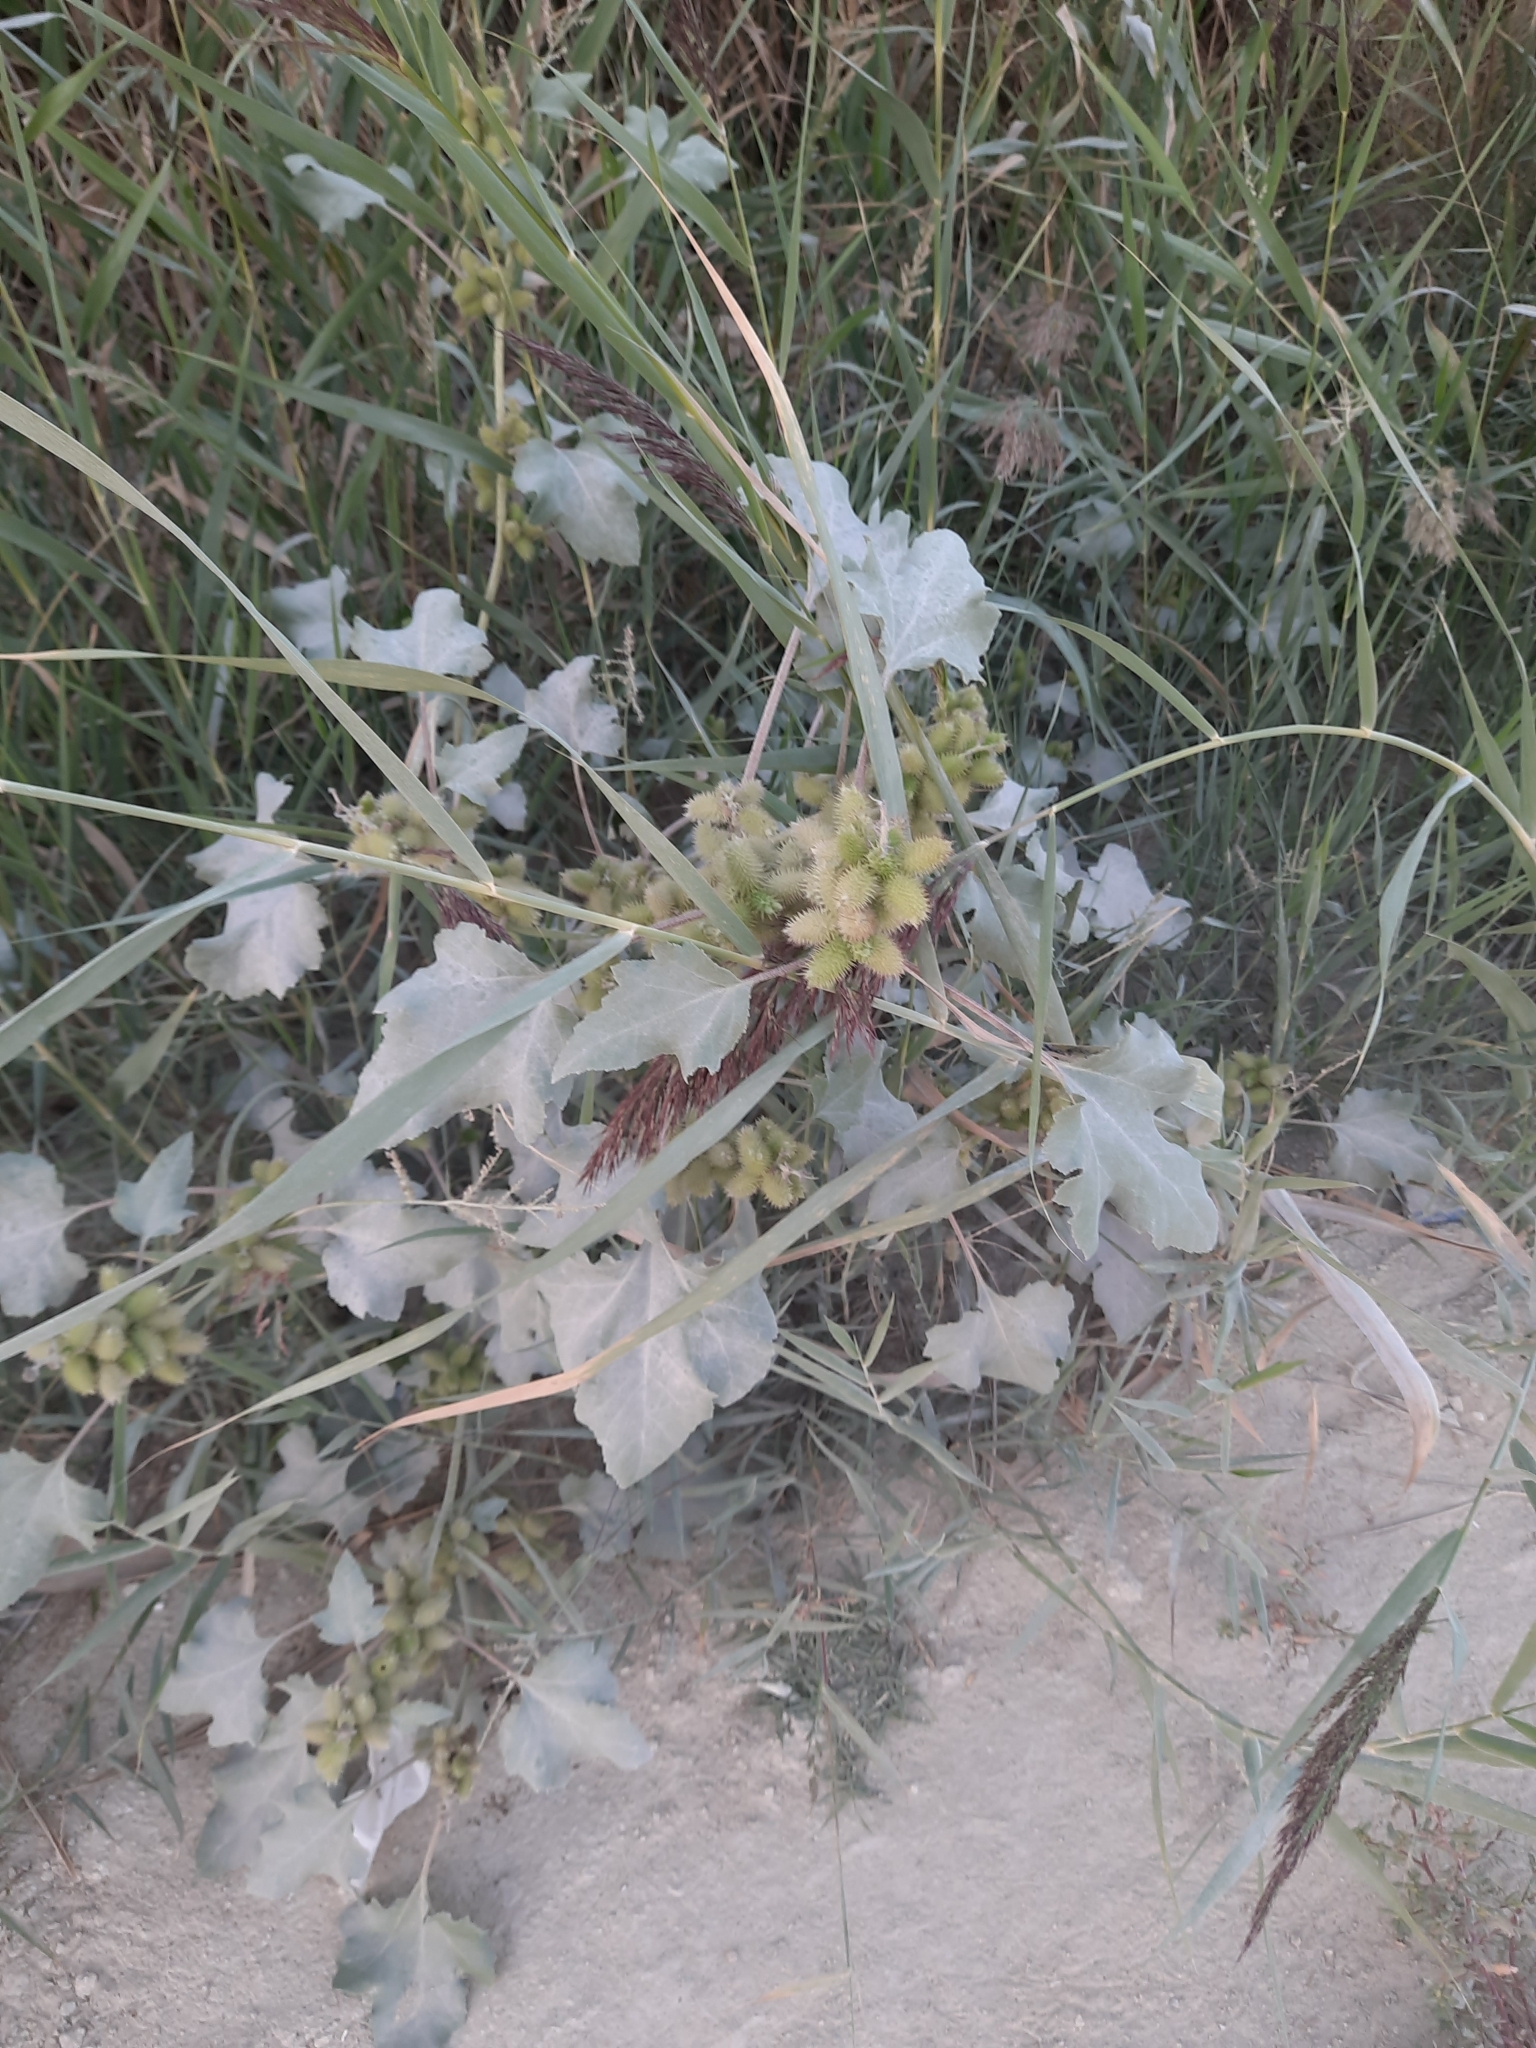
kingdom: Plantae
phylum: Tracheophyta
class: Magnoliopsida
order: Asterales
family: Asteraceae
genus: Xanthium
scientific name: Xanthium orientale
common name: Californian burr
